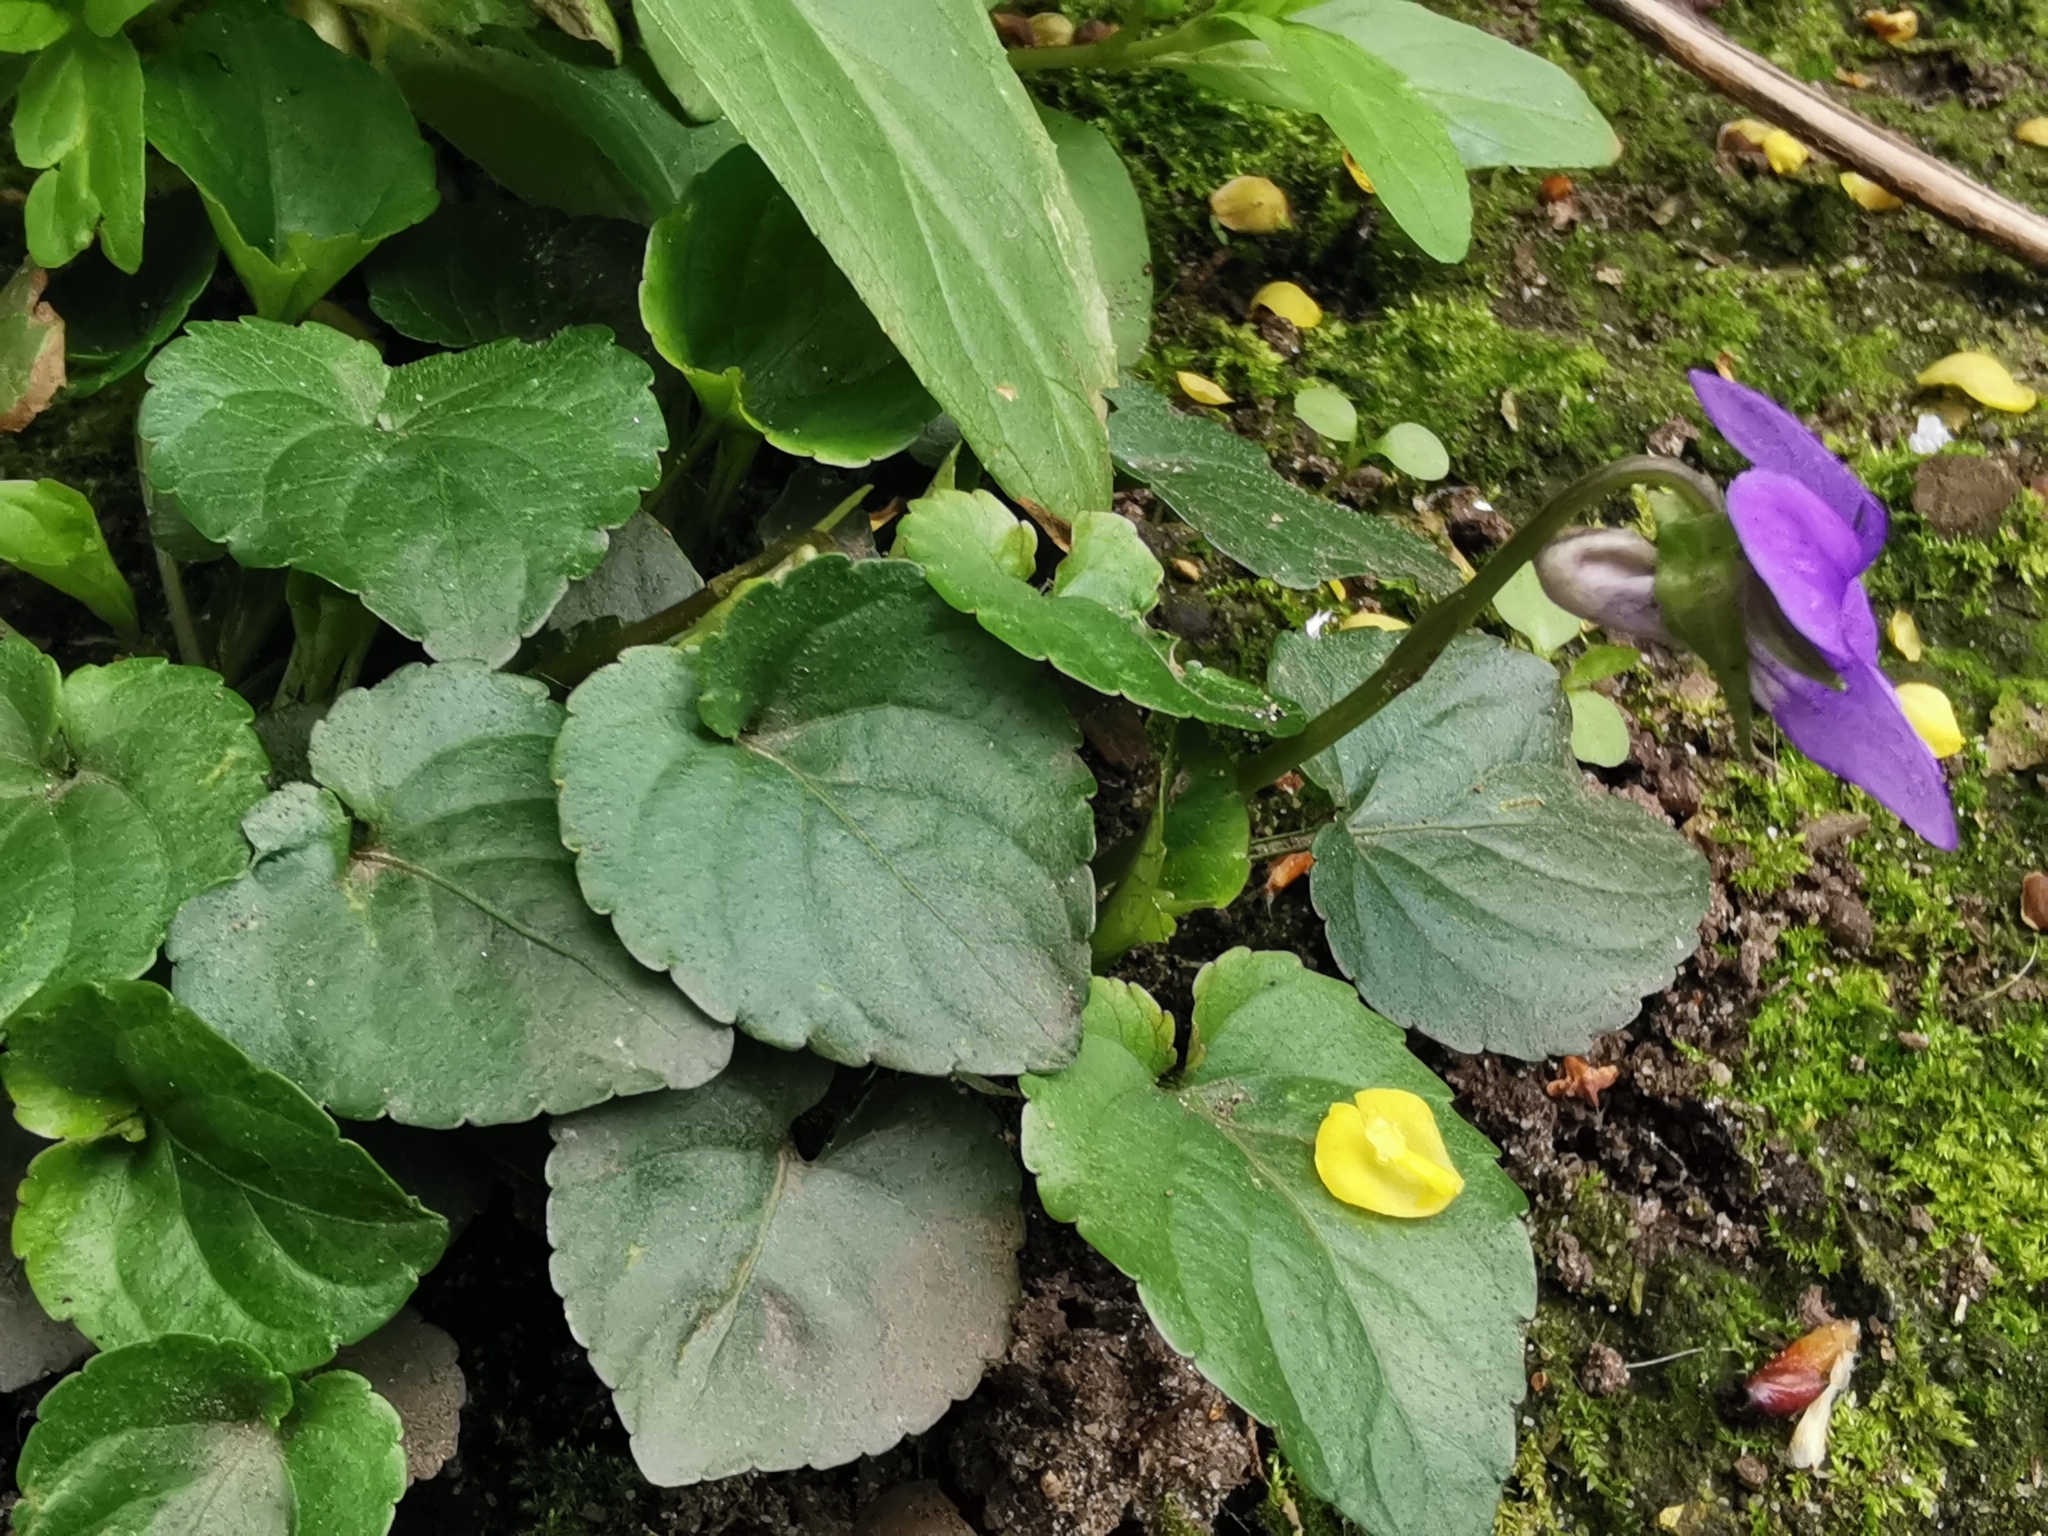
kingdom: Plantae
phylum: Tracheophyta
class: Magnoliopsida
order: Malpighiales
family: Violaceae
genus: Viola
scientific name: Viola riviniana
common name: Common dog-violet
